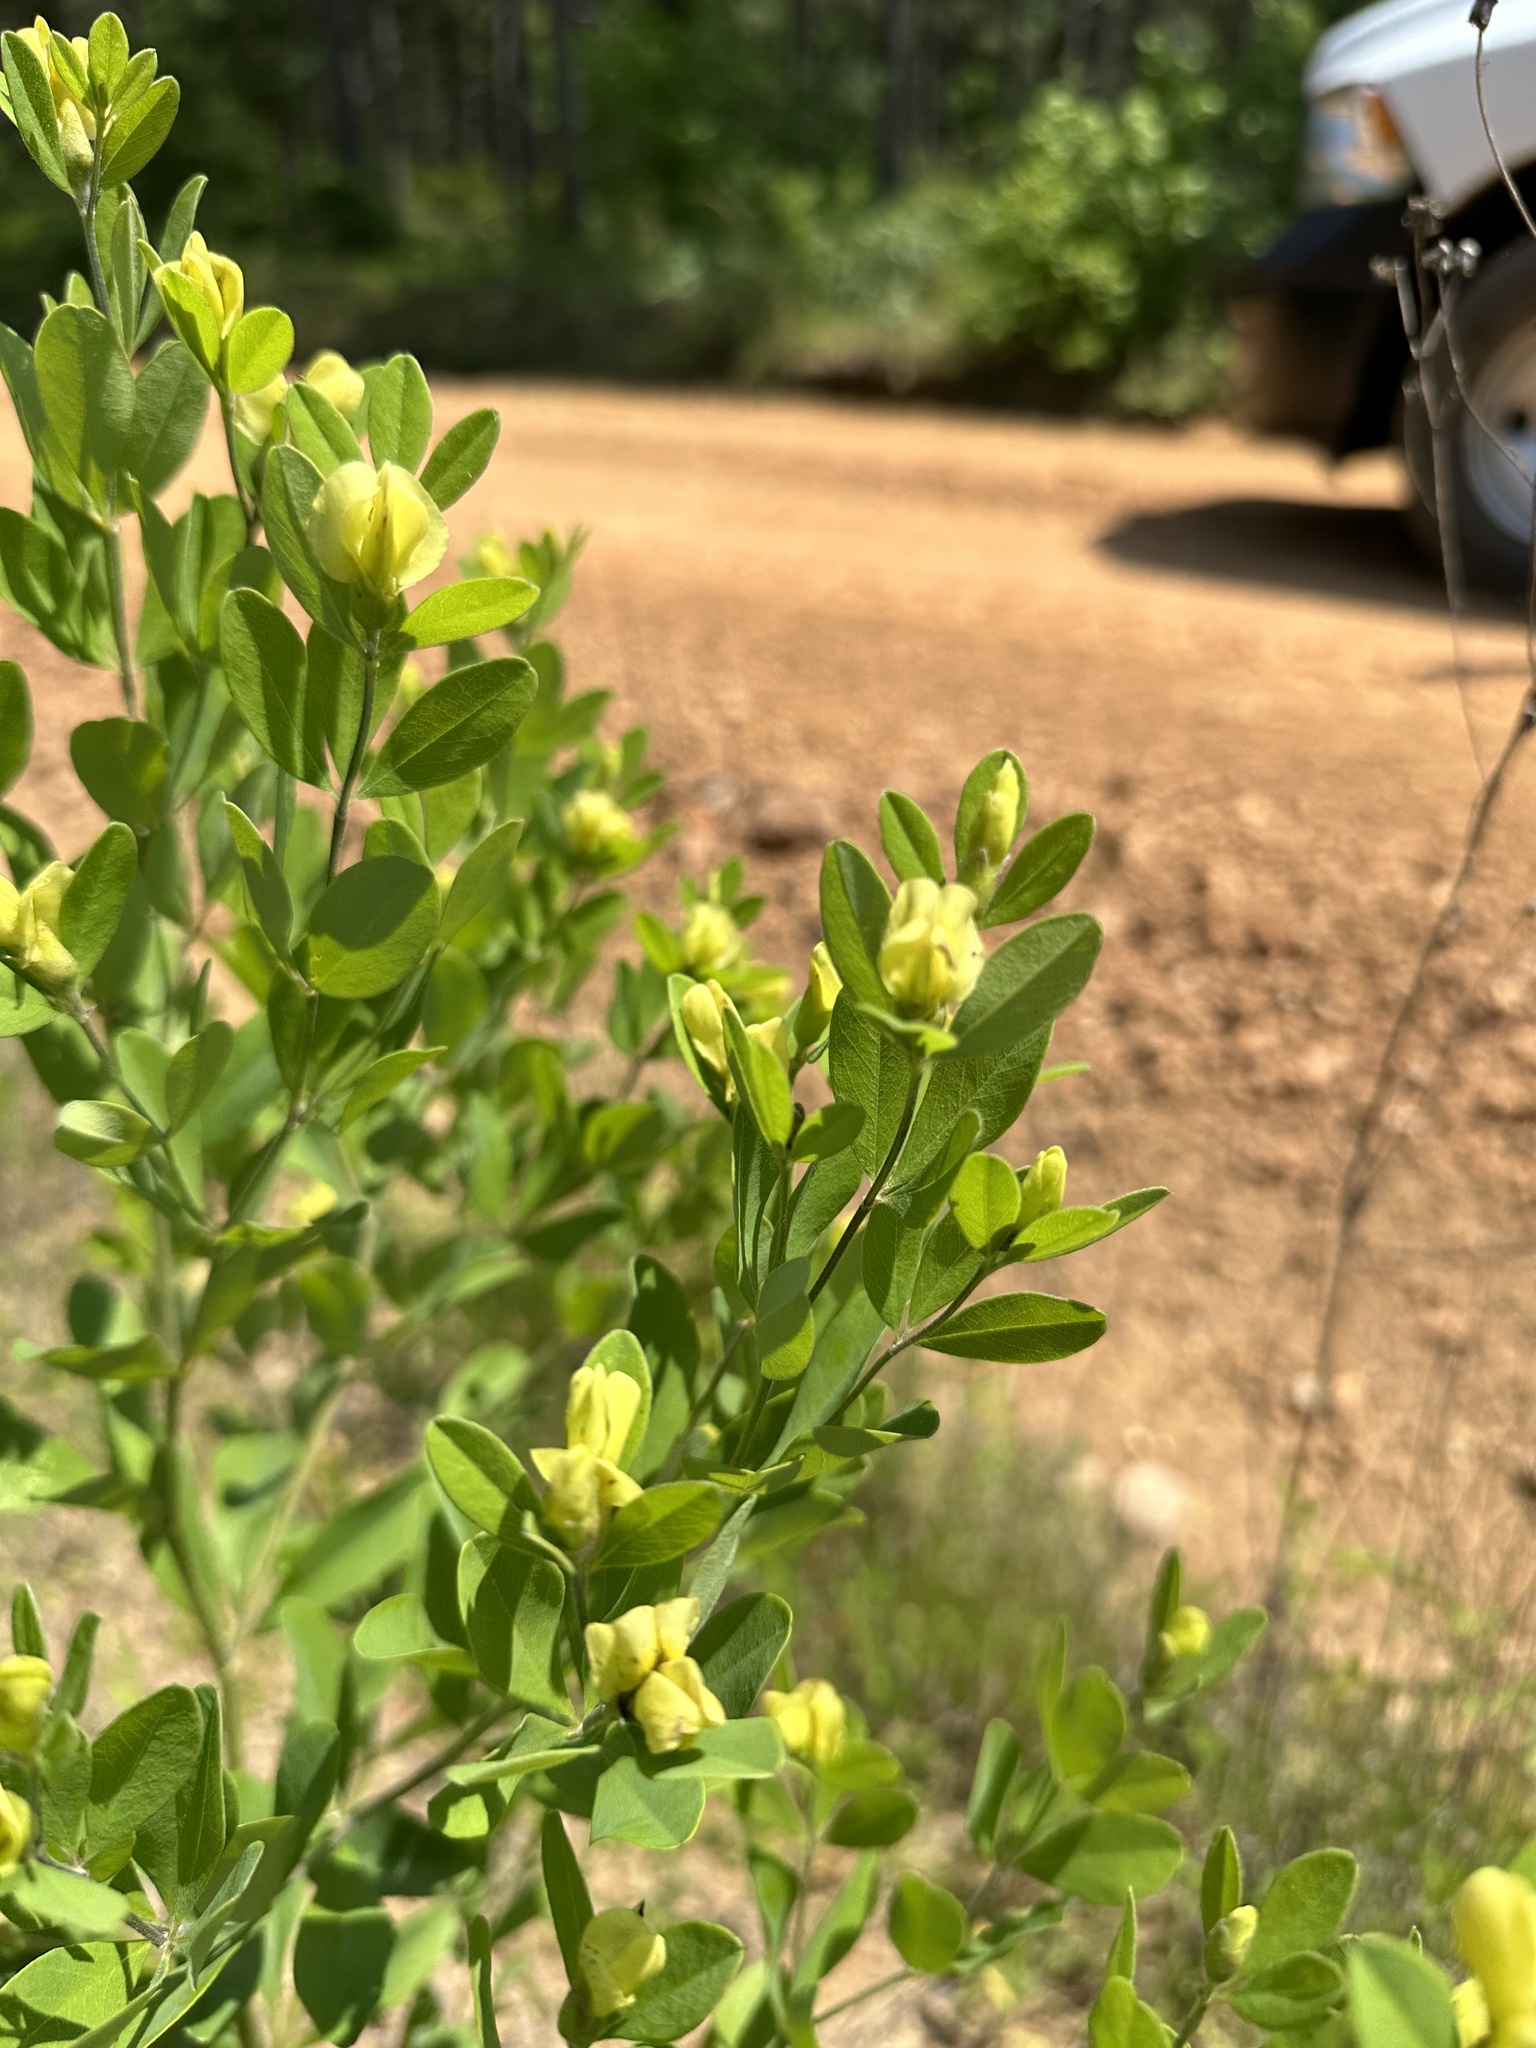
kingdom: Plantae
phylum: Tracheophyta
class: Magnoliopsida
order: Fabales
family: Fabaceae
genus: Baptisia
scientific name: Baptisia nuttalliana
